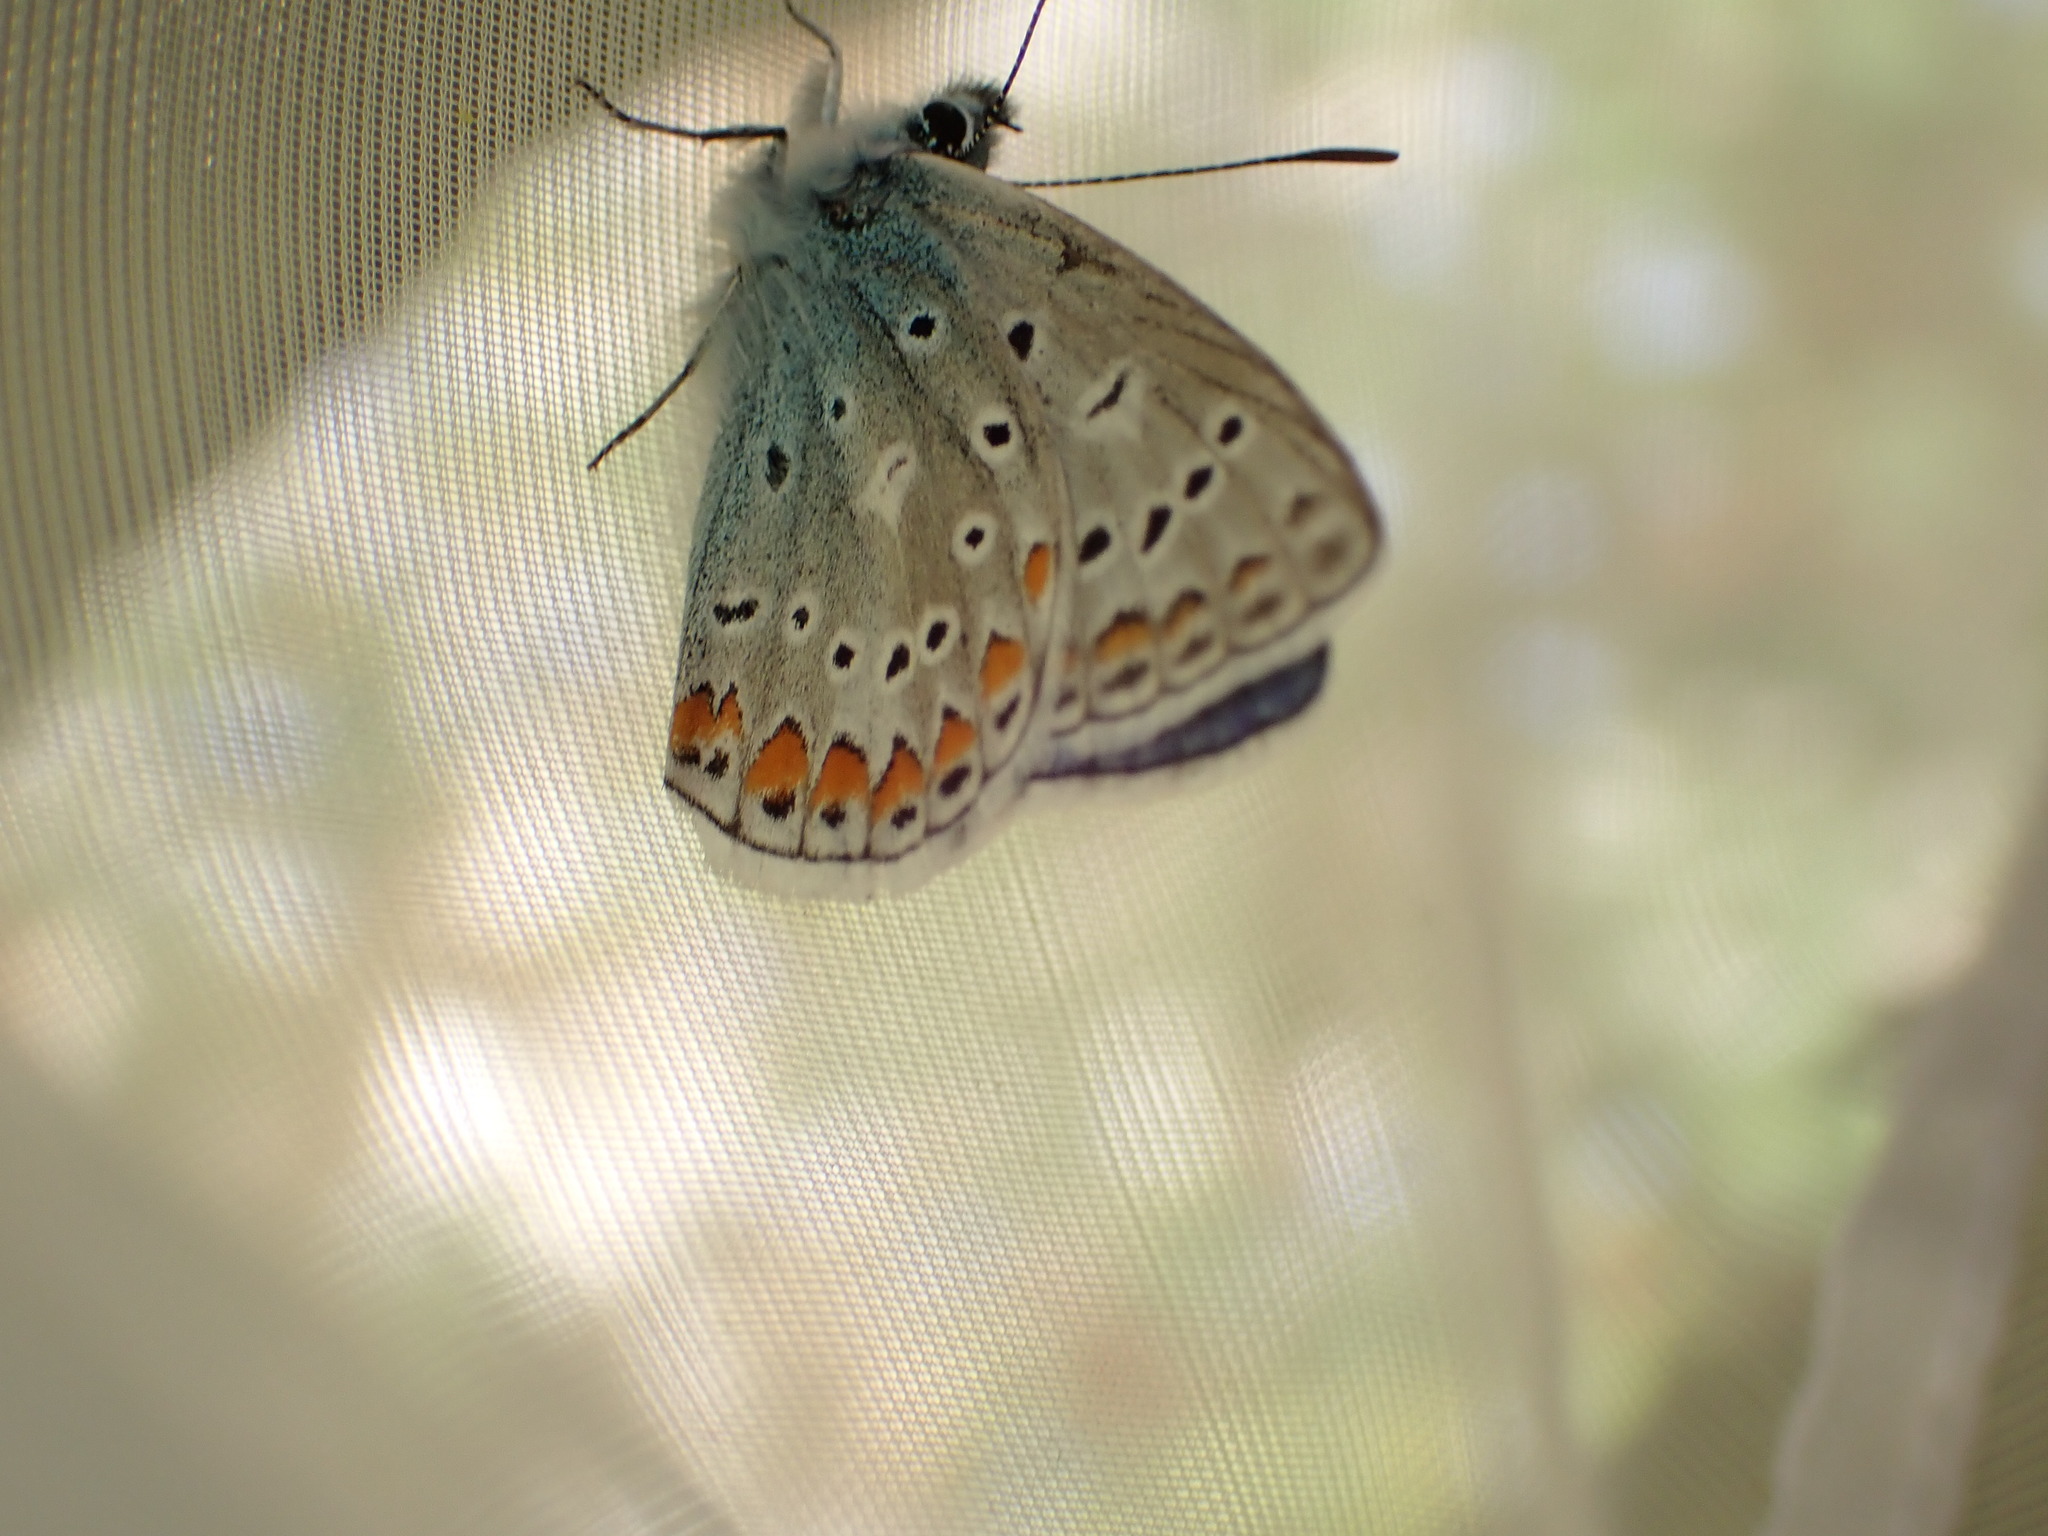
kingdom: Animalia
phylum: Arthropoda
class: Insecta
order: Lepidoptera
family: Lycaenidae
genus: Polyommatus
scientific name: Polyommatus icarus
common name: Common blue
